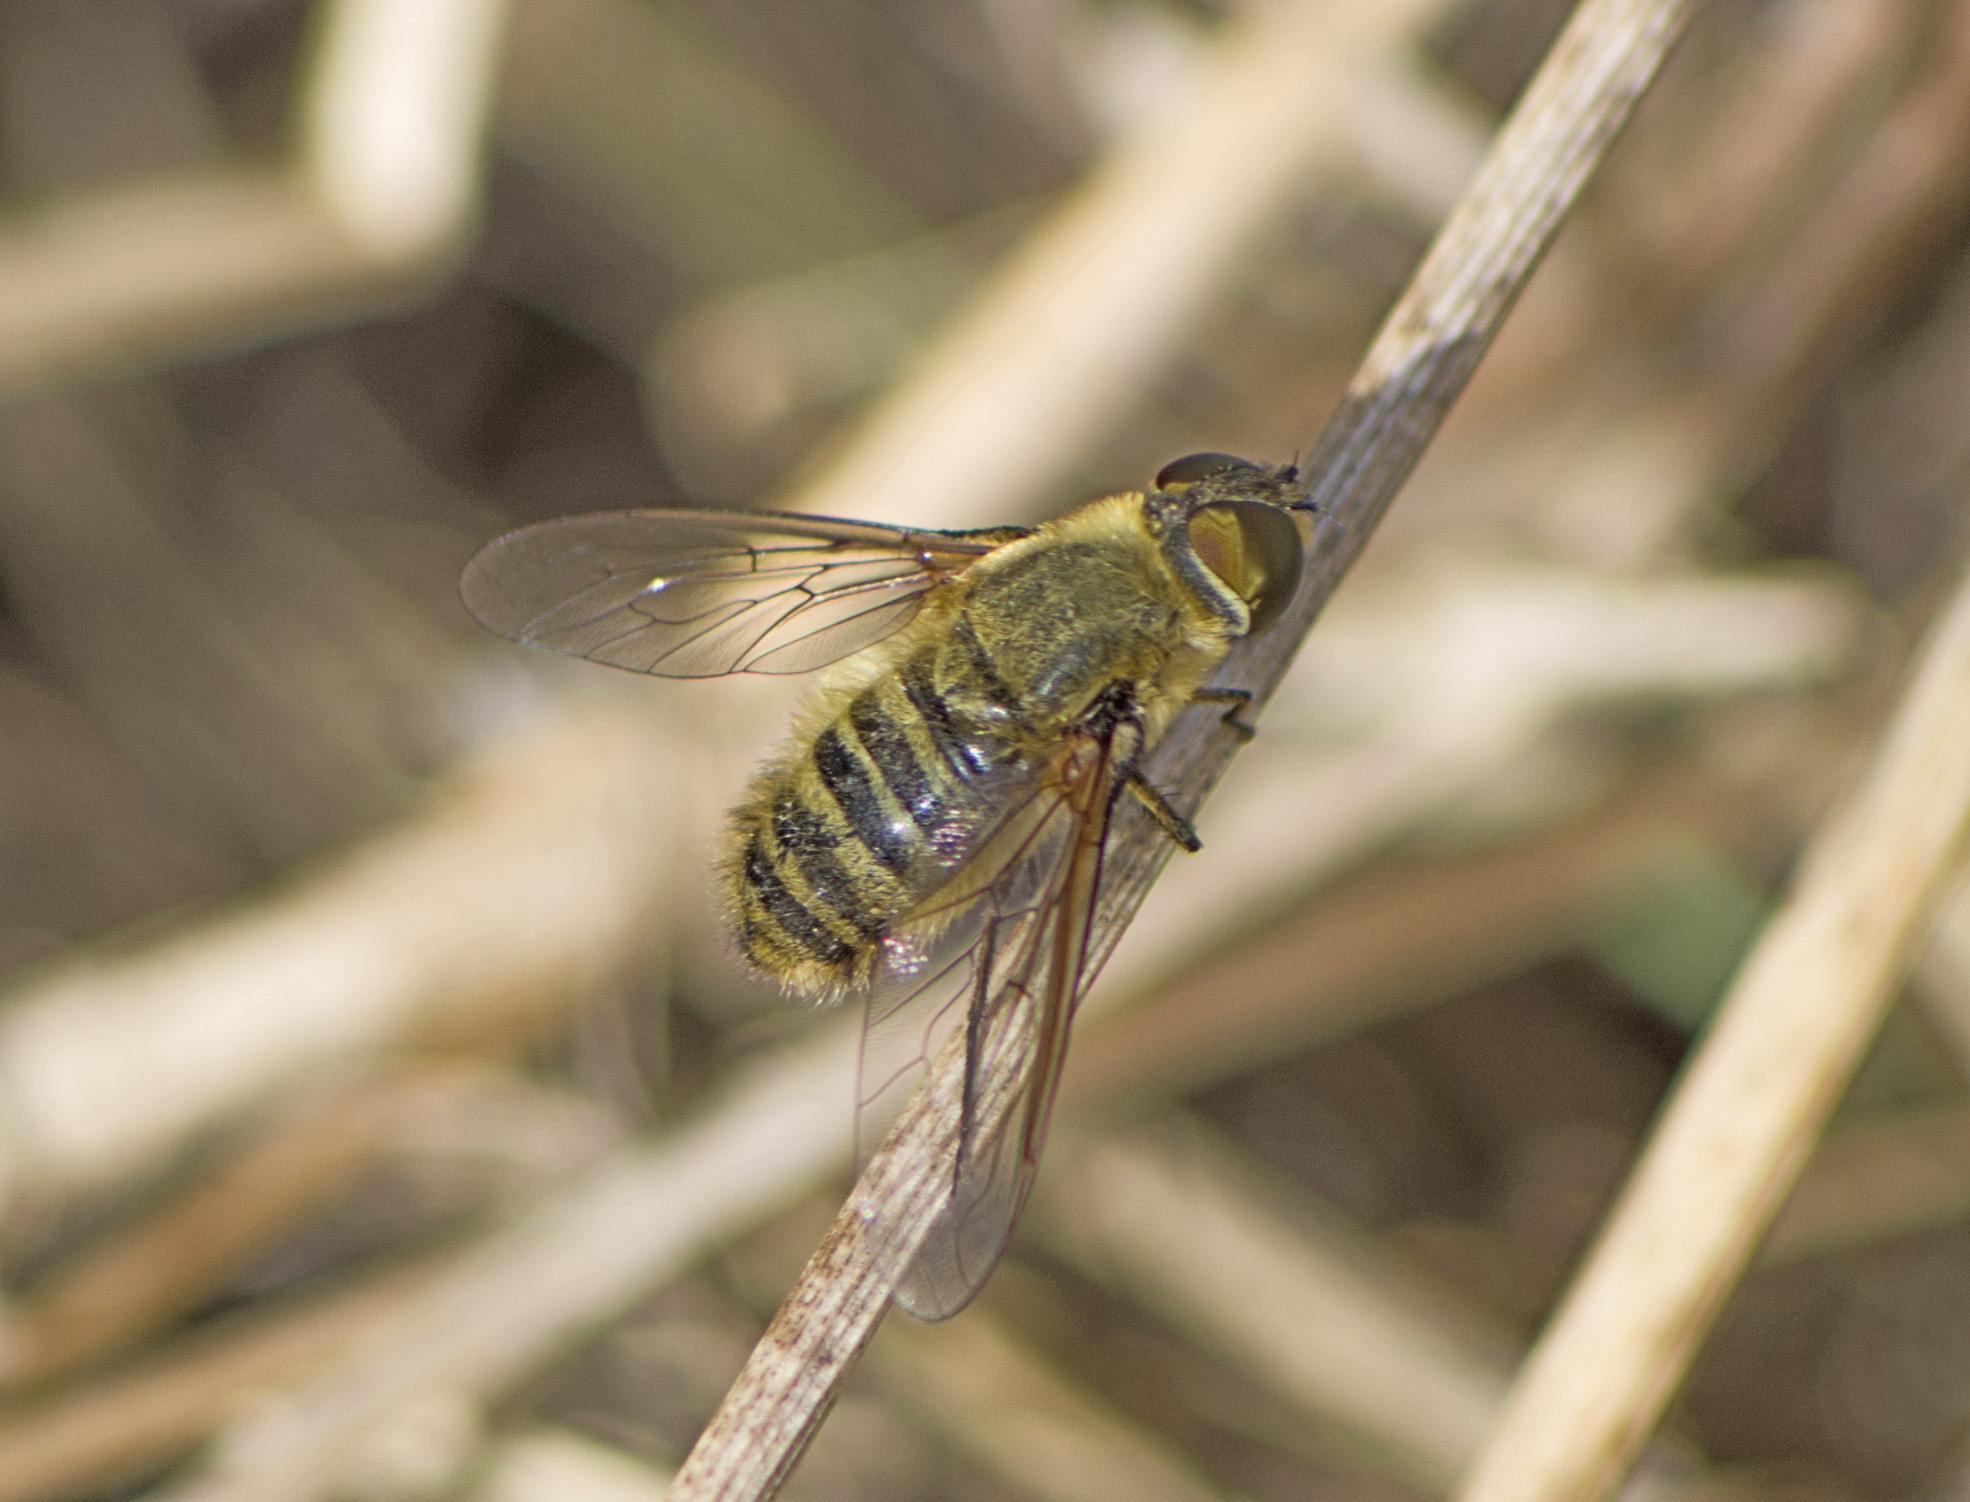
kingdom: Animalia
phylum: Arthropoda
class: Insecta
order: Diptera
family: Bombyliidae
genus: Villa
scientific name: Villa hottentotta
